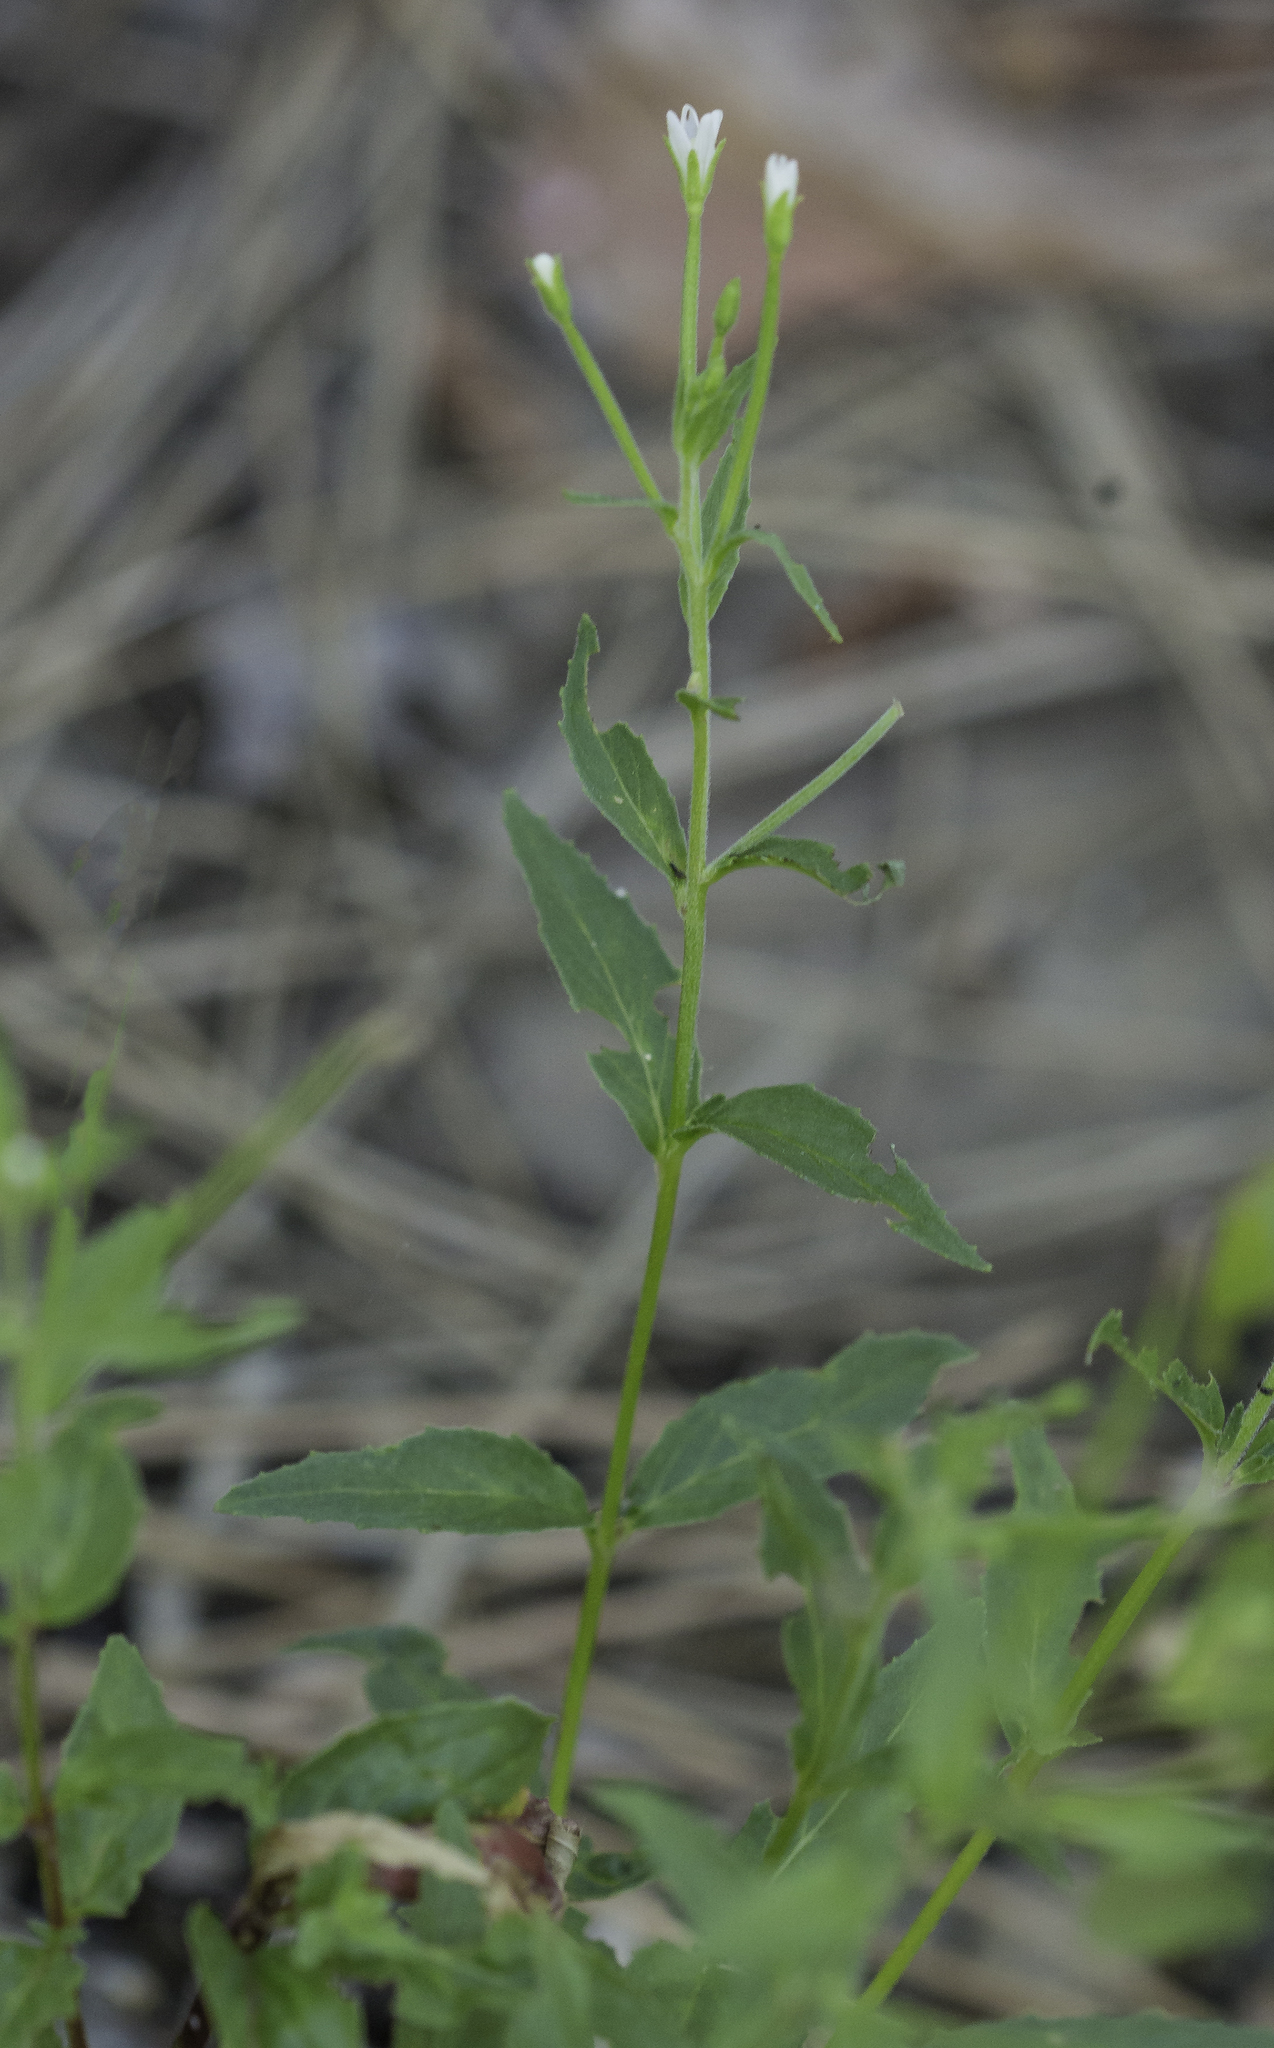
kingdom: Plantae
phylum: Tracheophyta
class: Magnoliopsida
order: Myrtales
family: Onagraceae
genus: Epilobium
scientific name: Epilobium ciliatum
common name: American willowherb
